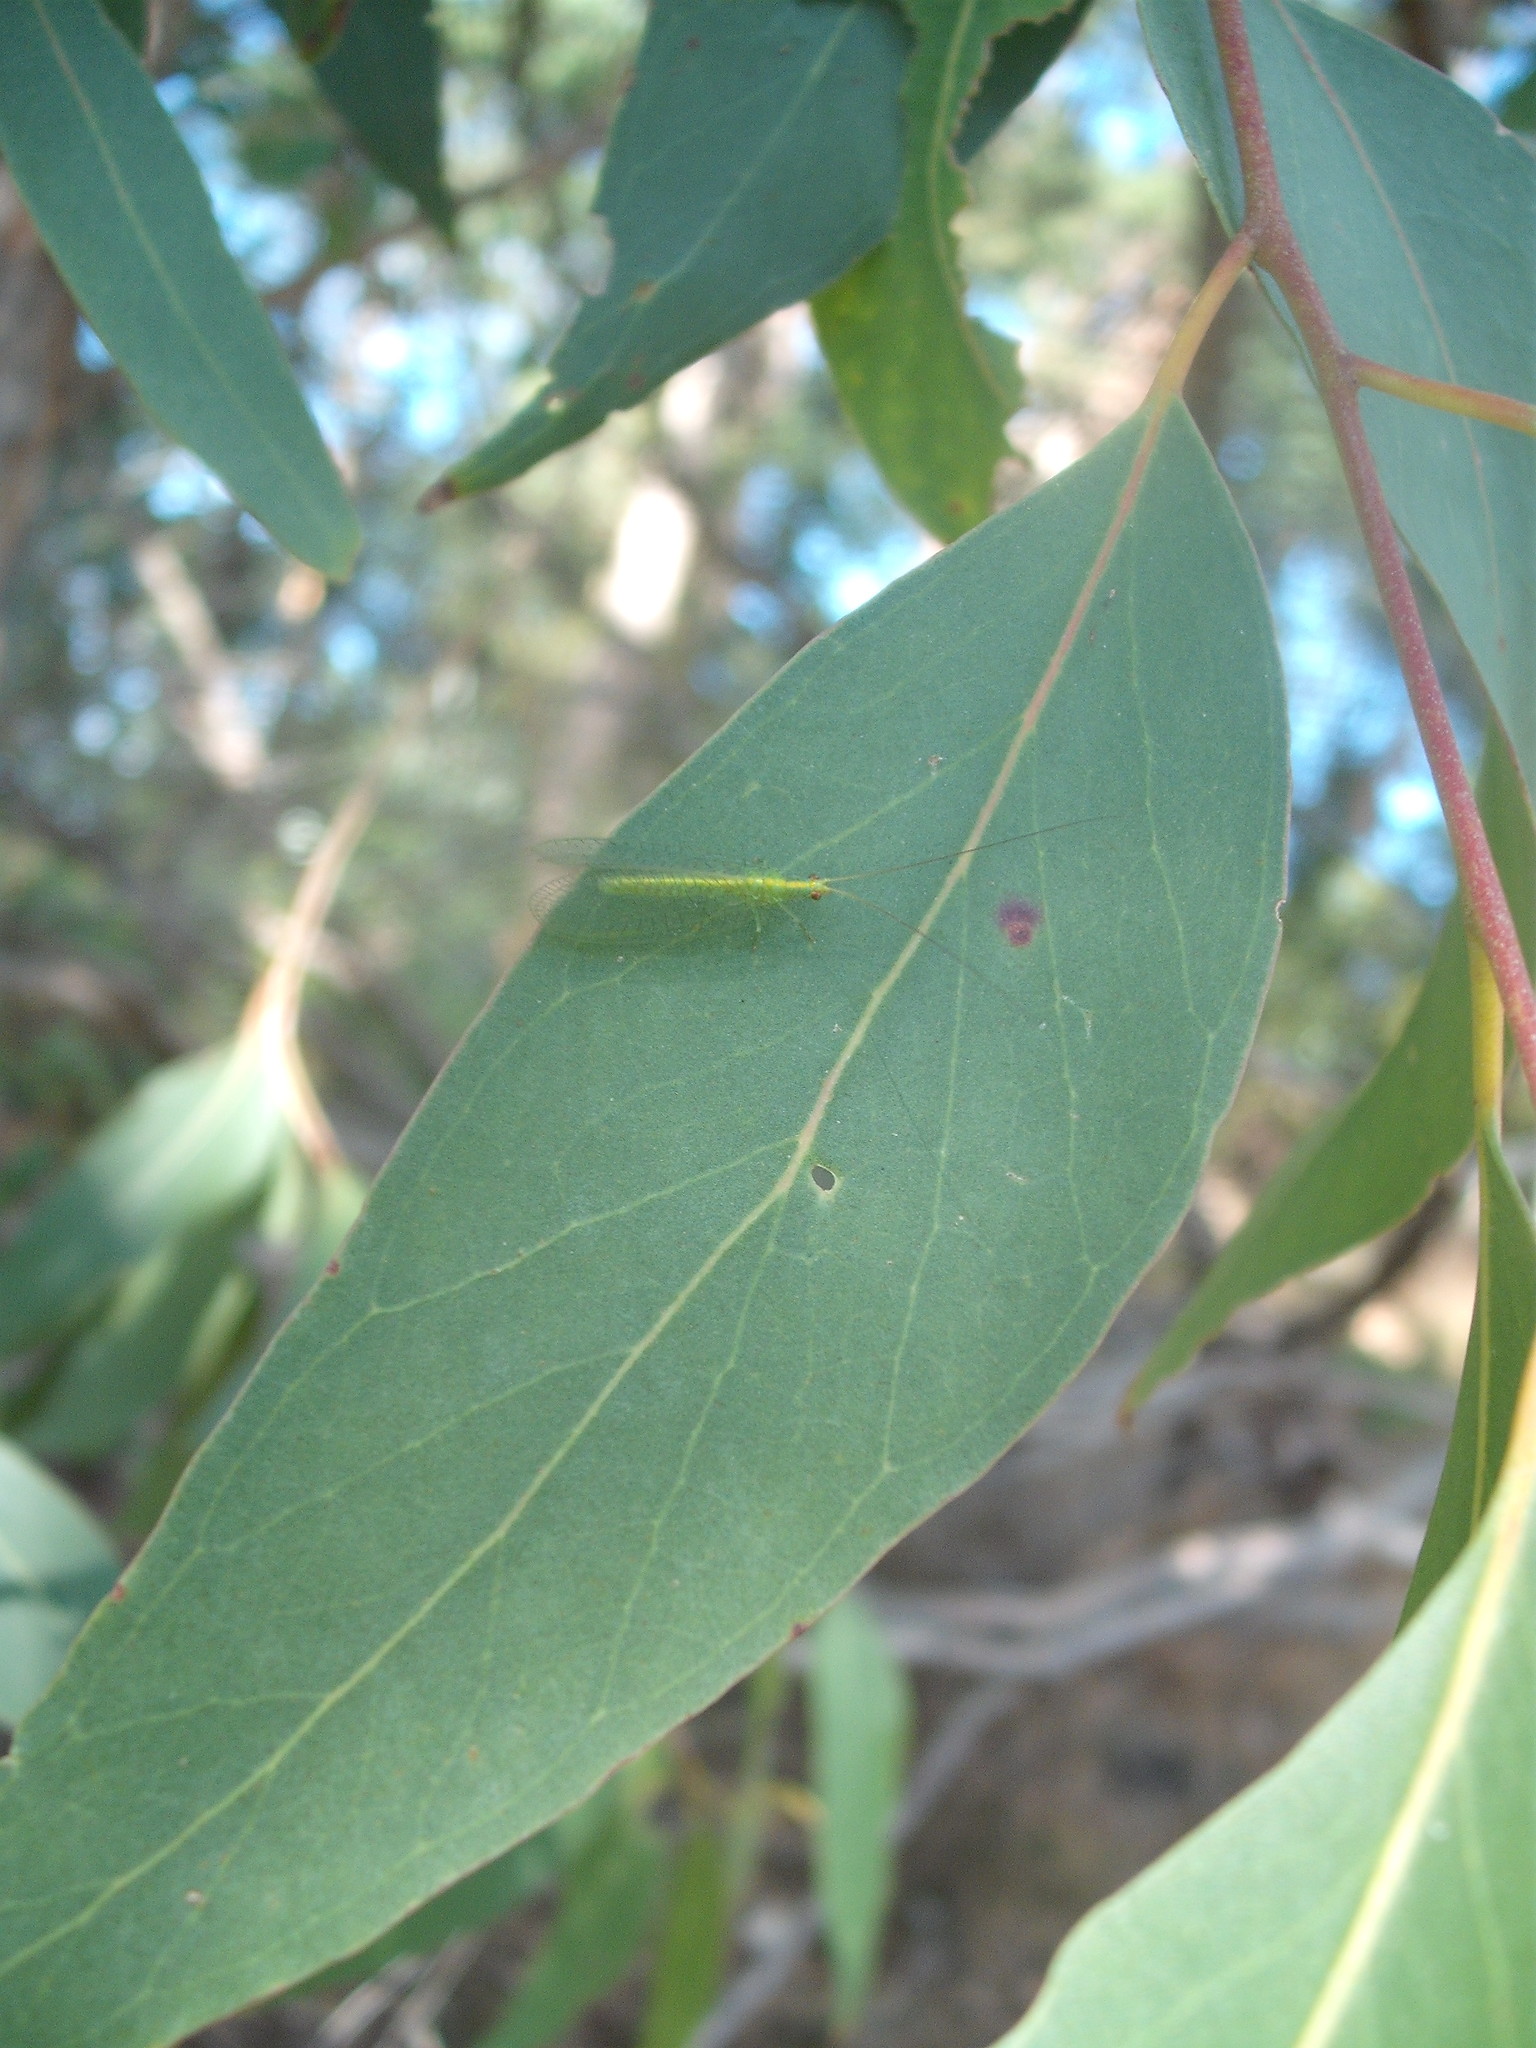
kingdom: Animalia
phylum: Arthropoda
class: Insecta
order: Neuroptera
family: Chrysopidae
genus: Mallada
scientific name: Mallada basalis
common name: Green lacewing
